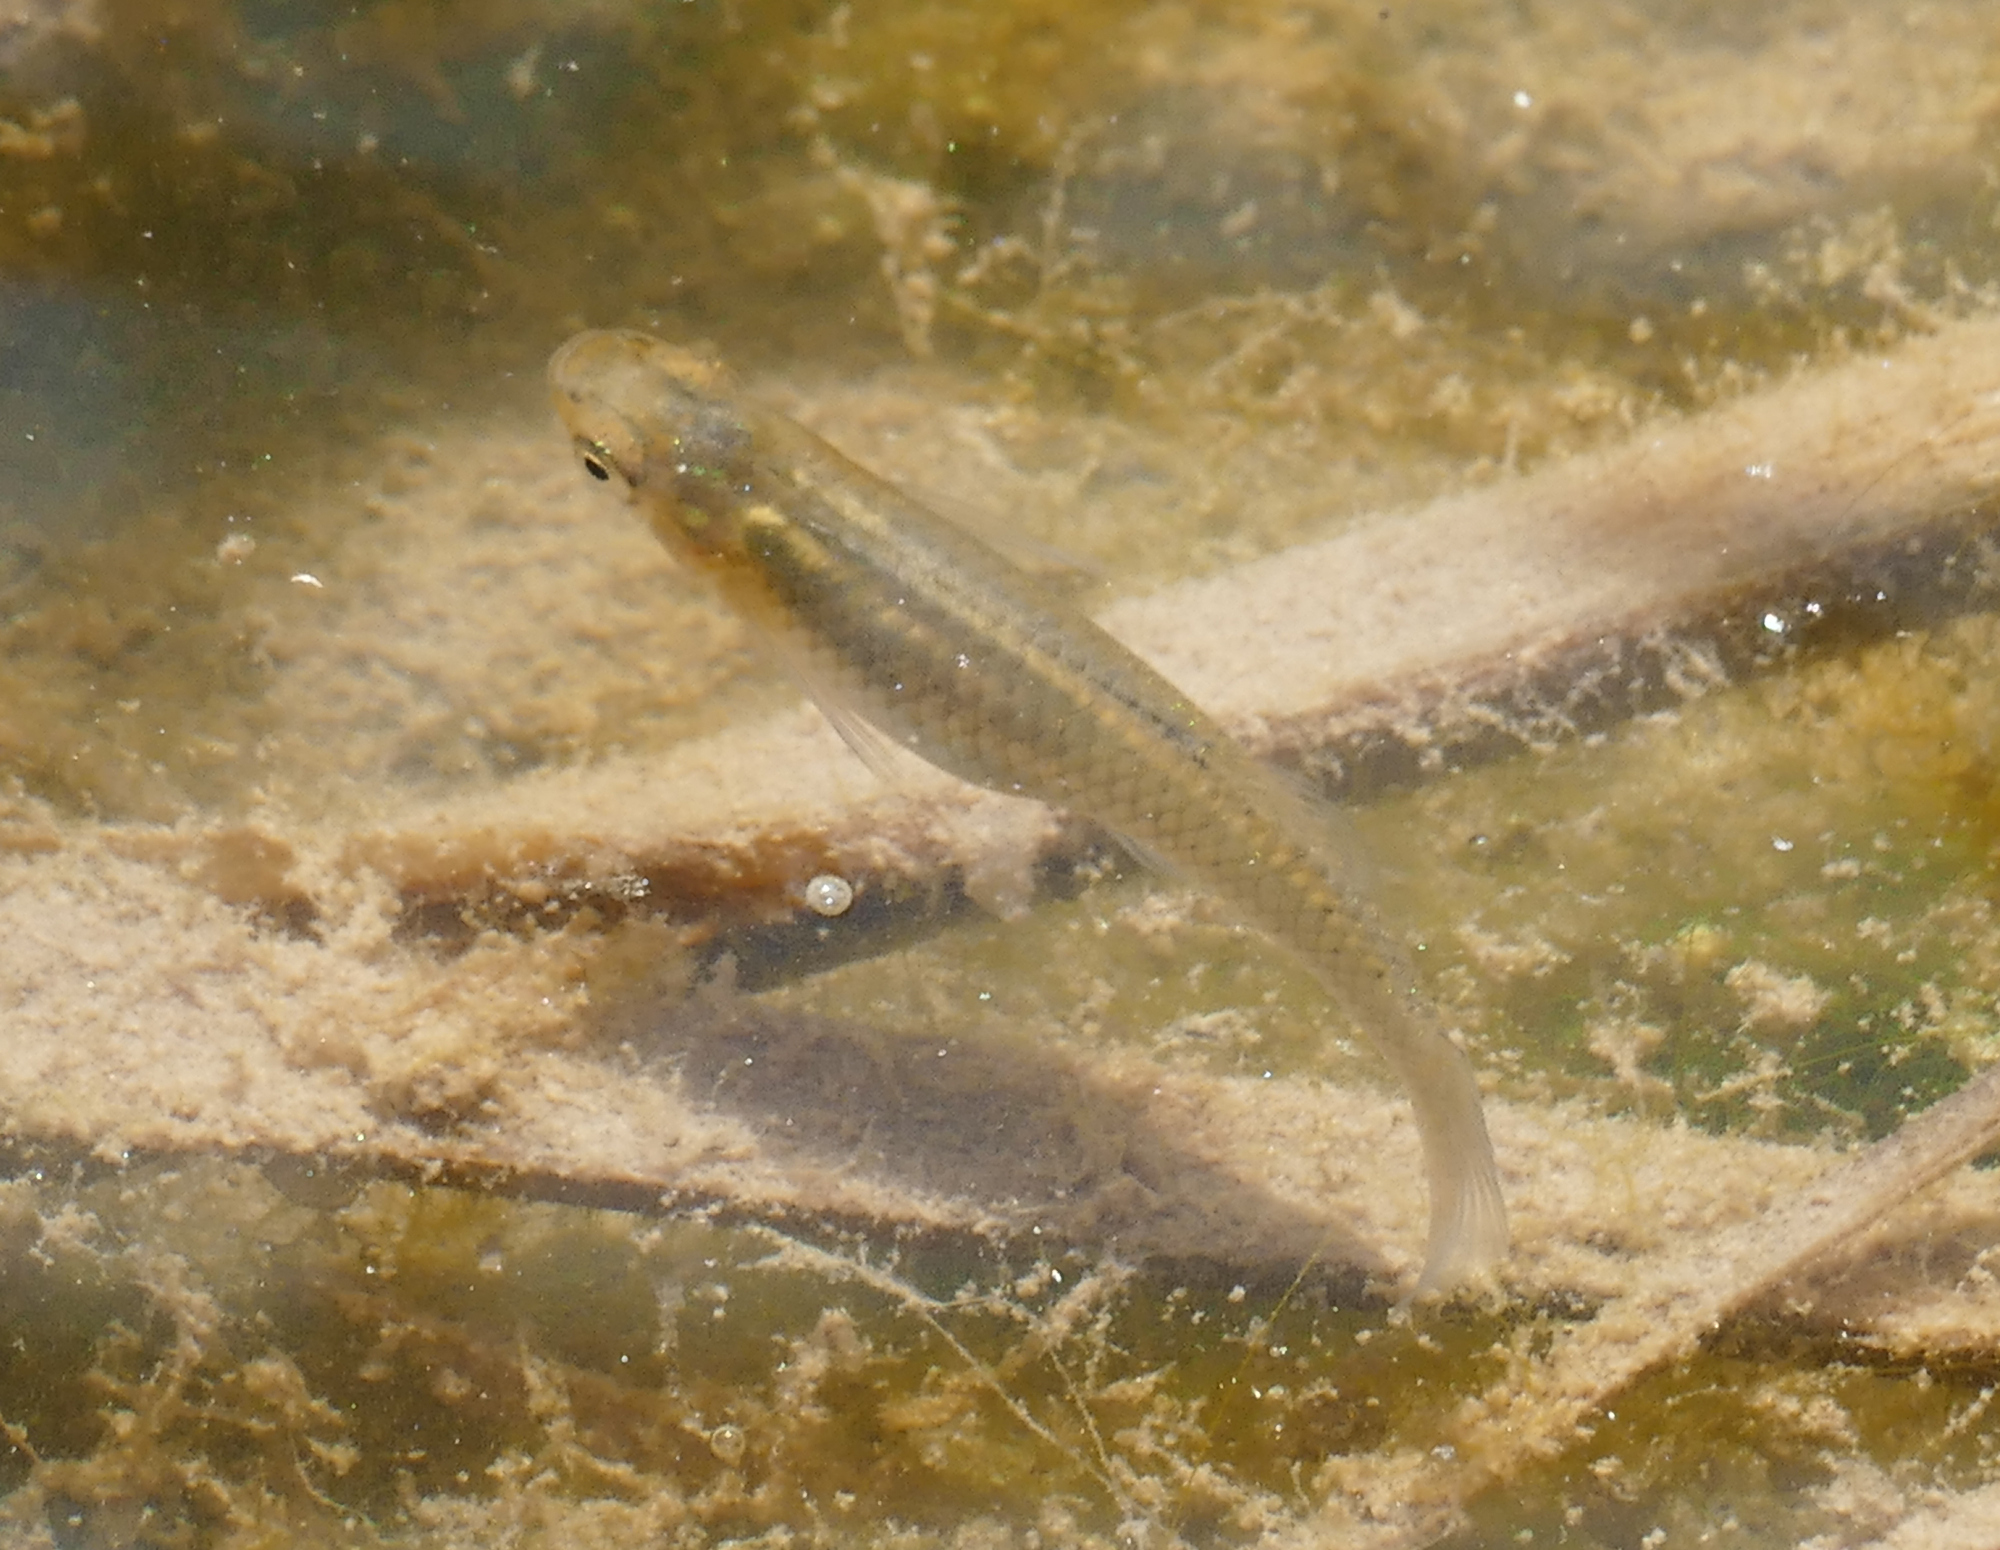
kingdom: Animalia
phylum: Chordata
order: Cyprinodontiformes
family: Poeciliidae
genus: Gambusia
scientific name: Gambusia affinis
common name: Mosquitofish
